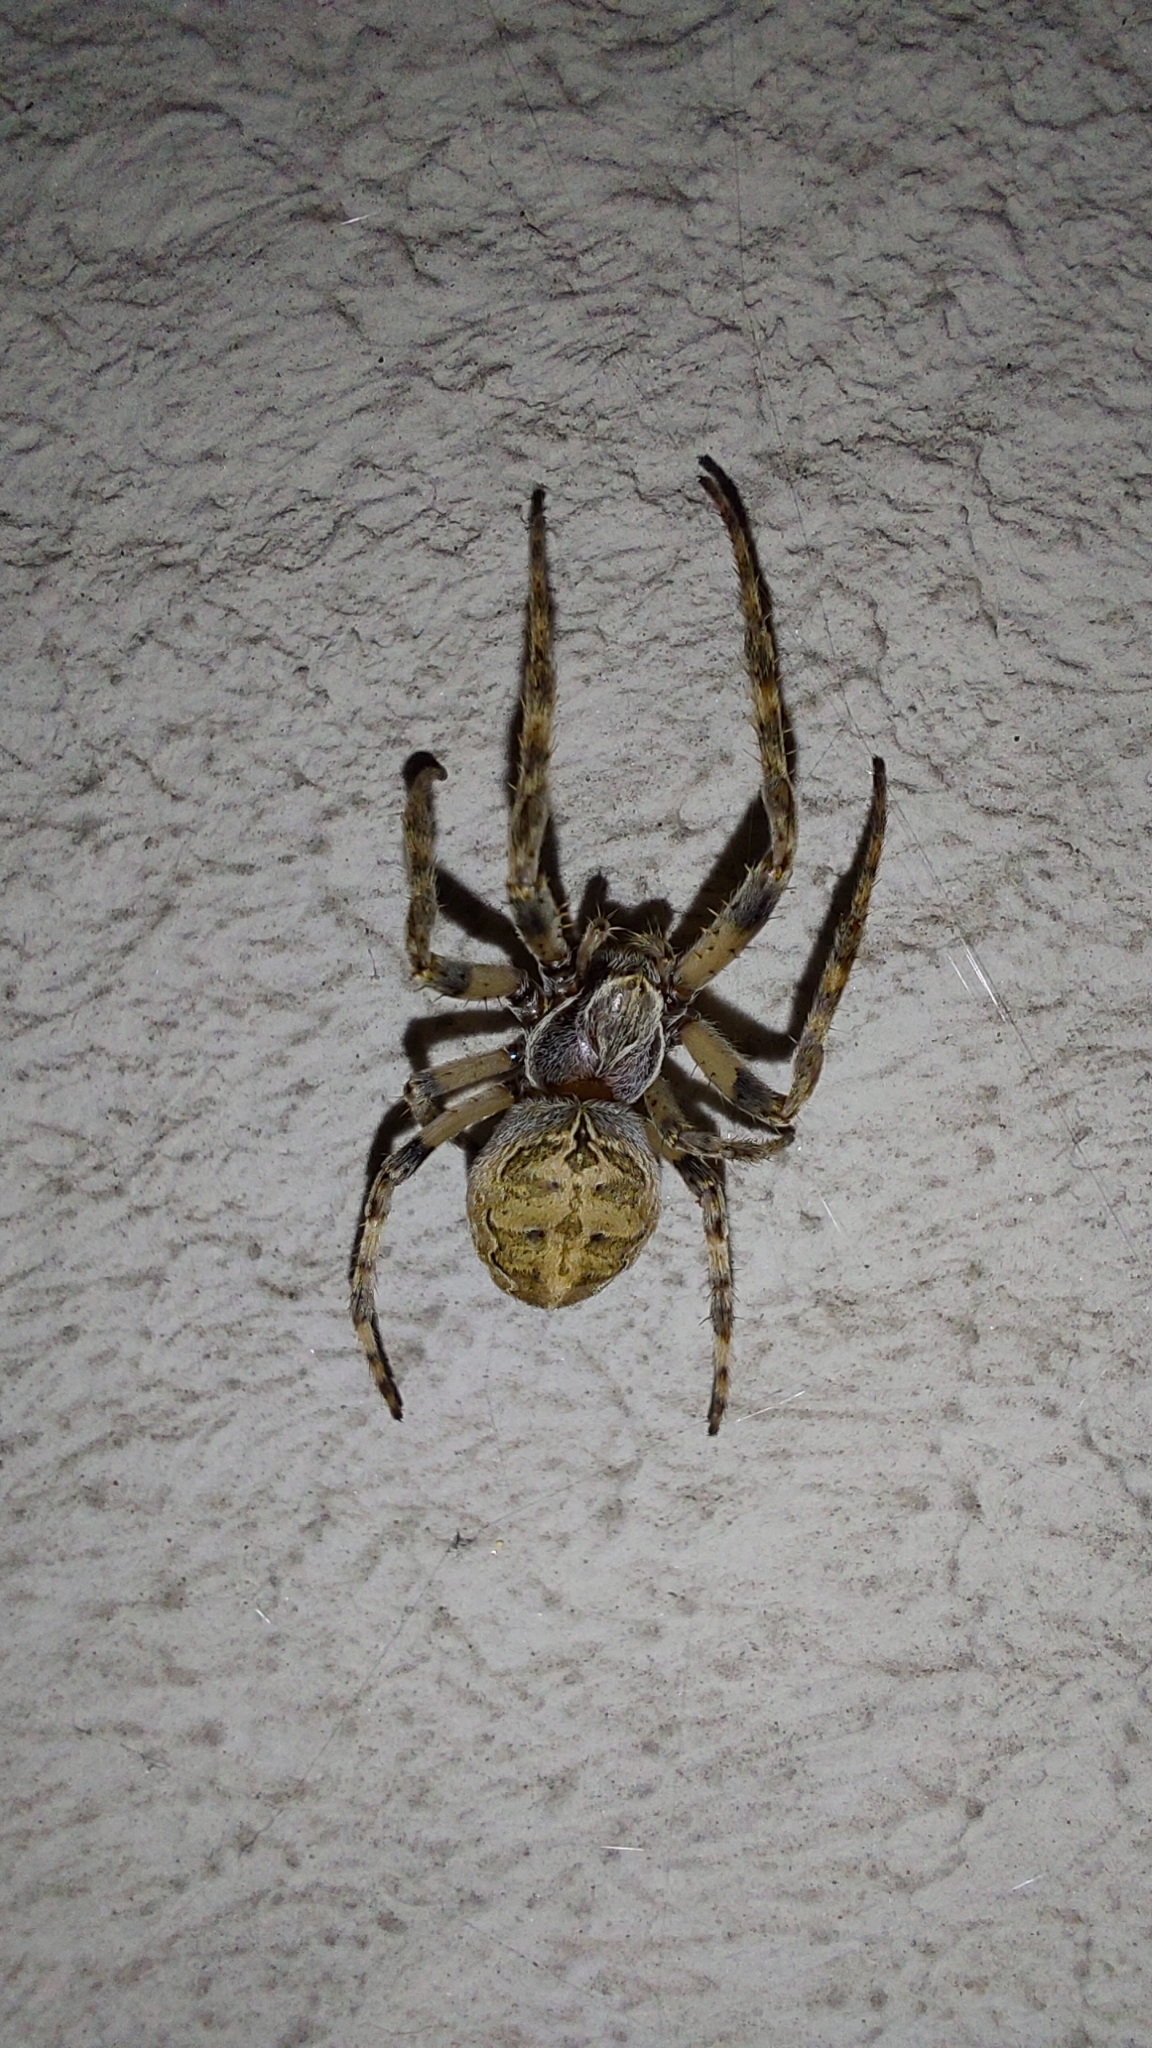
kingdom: Animalia
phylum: Arthropoda
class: Arachnida
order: Araneae
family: Araneidae
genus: Larinioides
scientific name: Larinioides sclopetarius
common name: Bridge orbweaver
